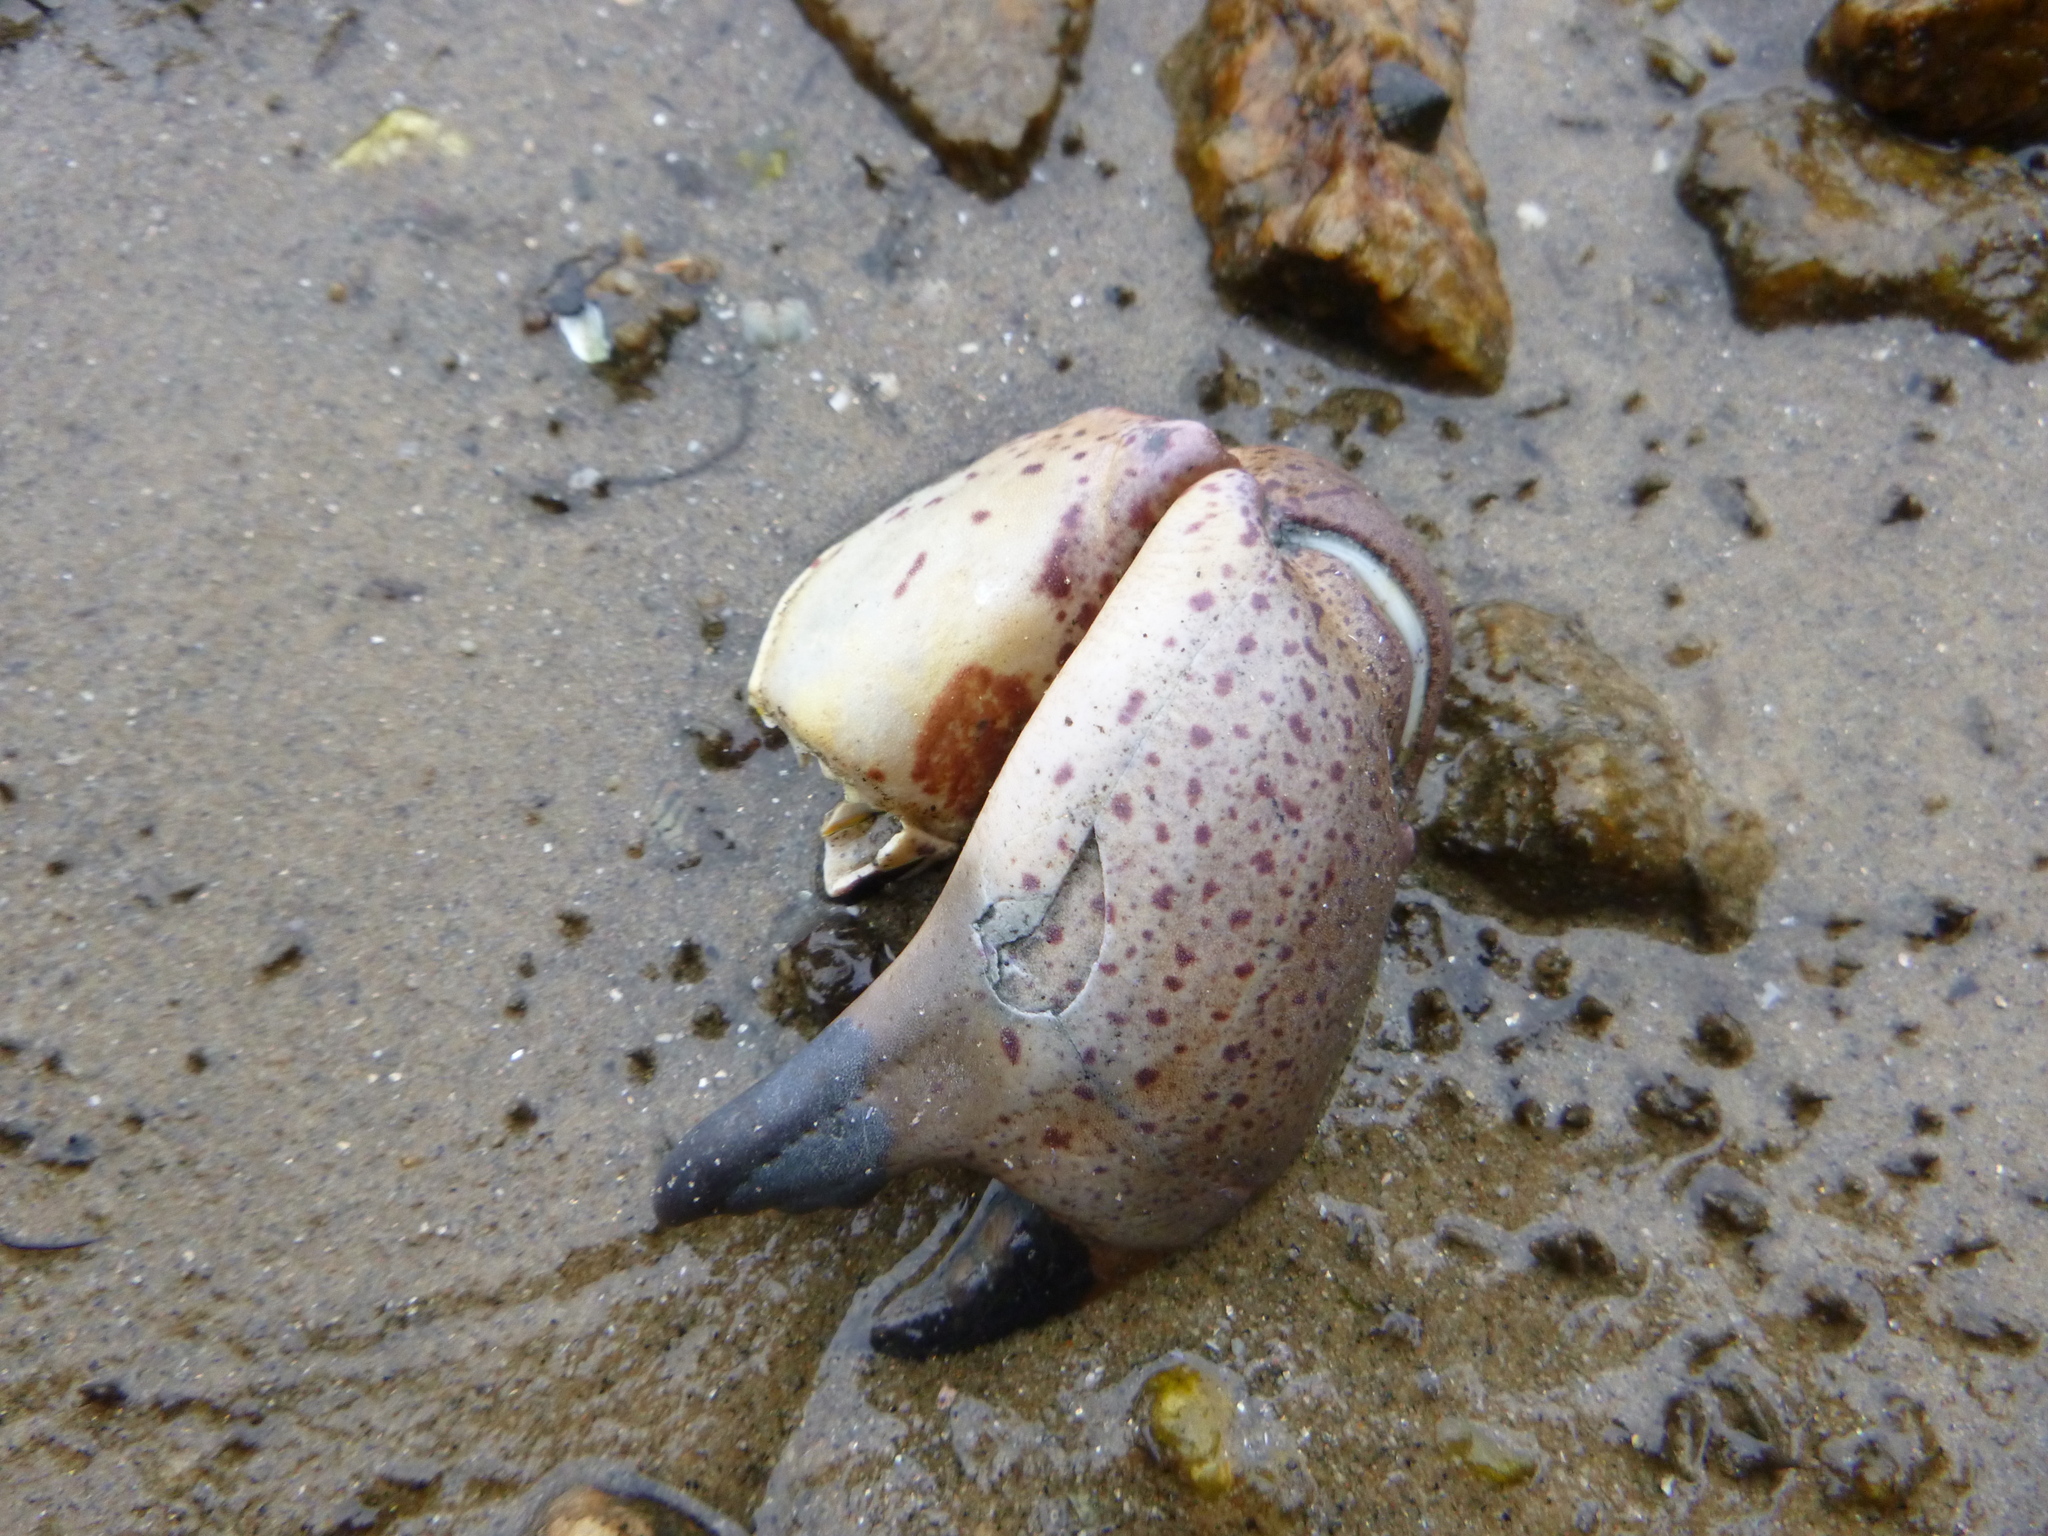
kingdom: Animalia
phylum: Arthropoda
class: Malacostraca
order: Decapoda
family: Cancridae
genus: Romaleon
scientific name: Romaleon antennarium
